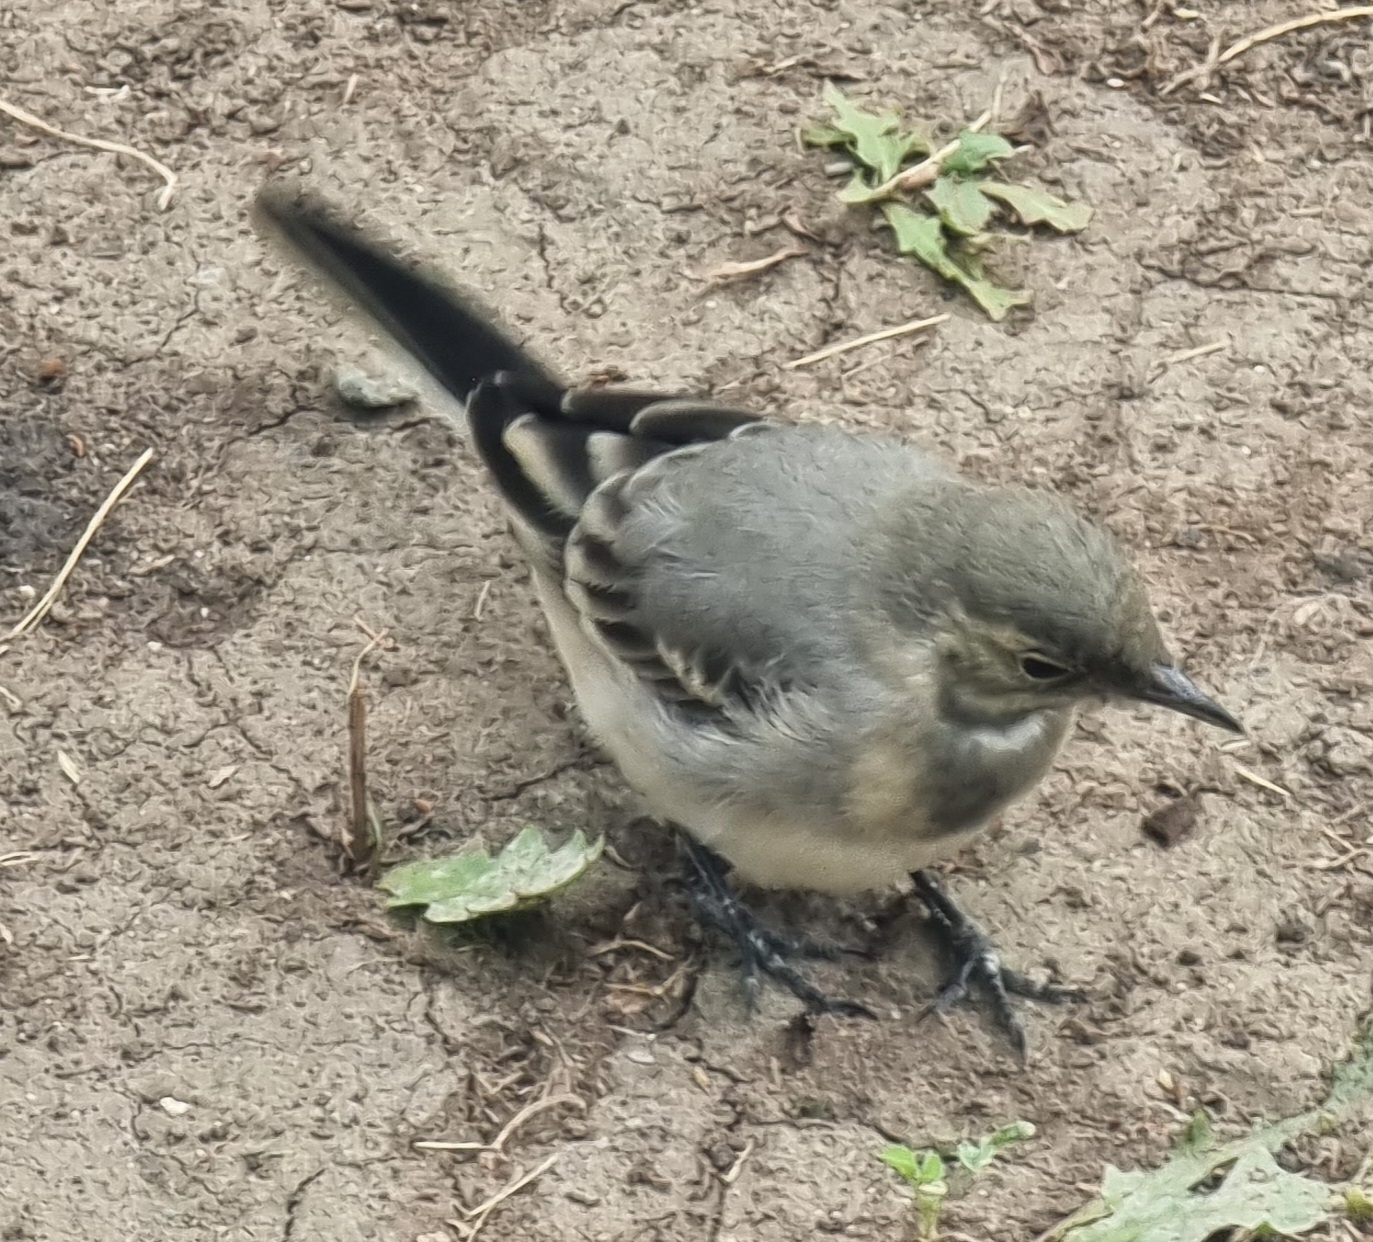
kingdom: Animalia
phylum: Chordata
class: Aves
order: Passeriformes
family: Motacillidae
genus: Motacilla
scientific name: Motacilla alba
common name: White wagtail
